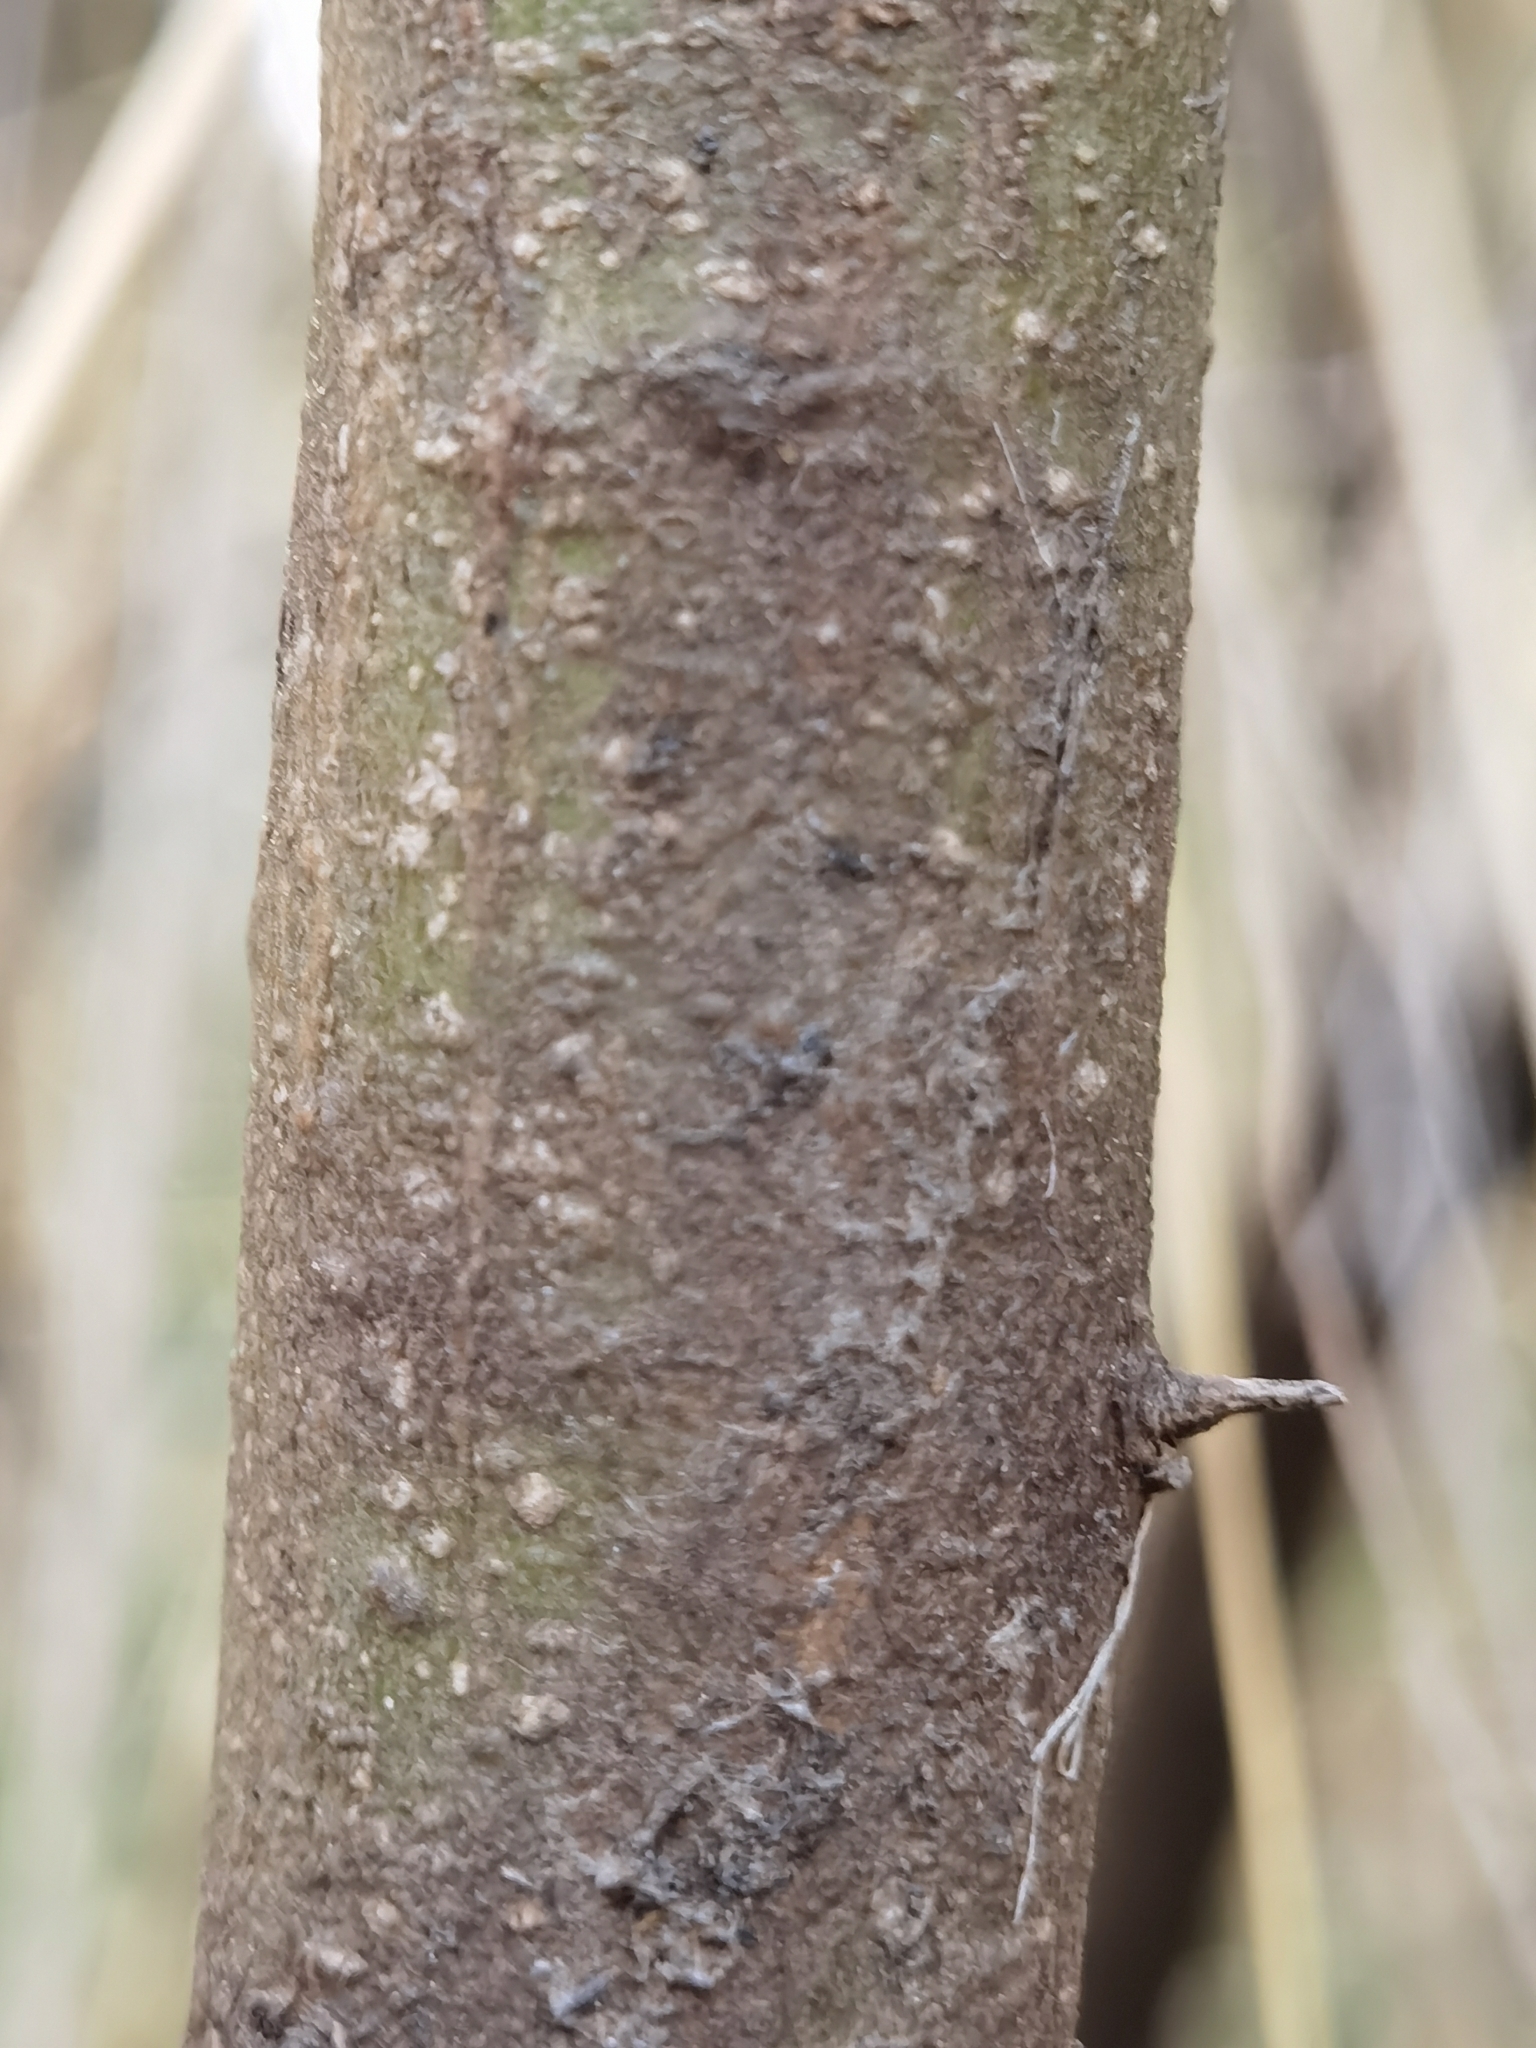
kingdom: Plantae
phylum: Tracheophyta
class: Magnoliopsida
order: Fabales
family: Fabaceae
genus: Chamaecytisus
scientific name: Chamaecytisus prolifer
